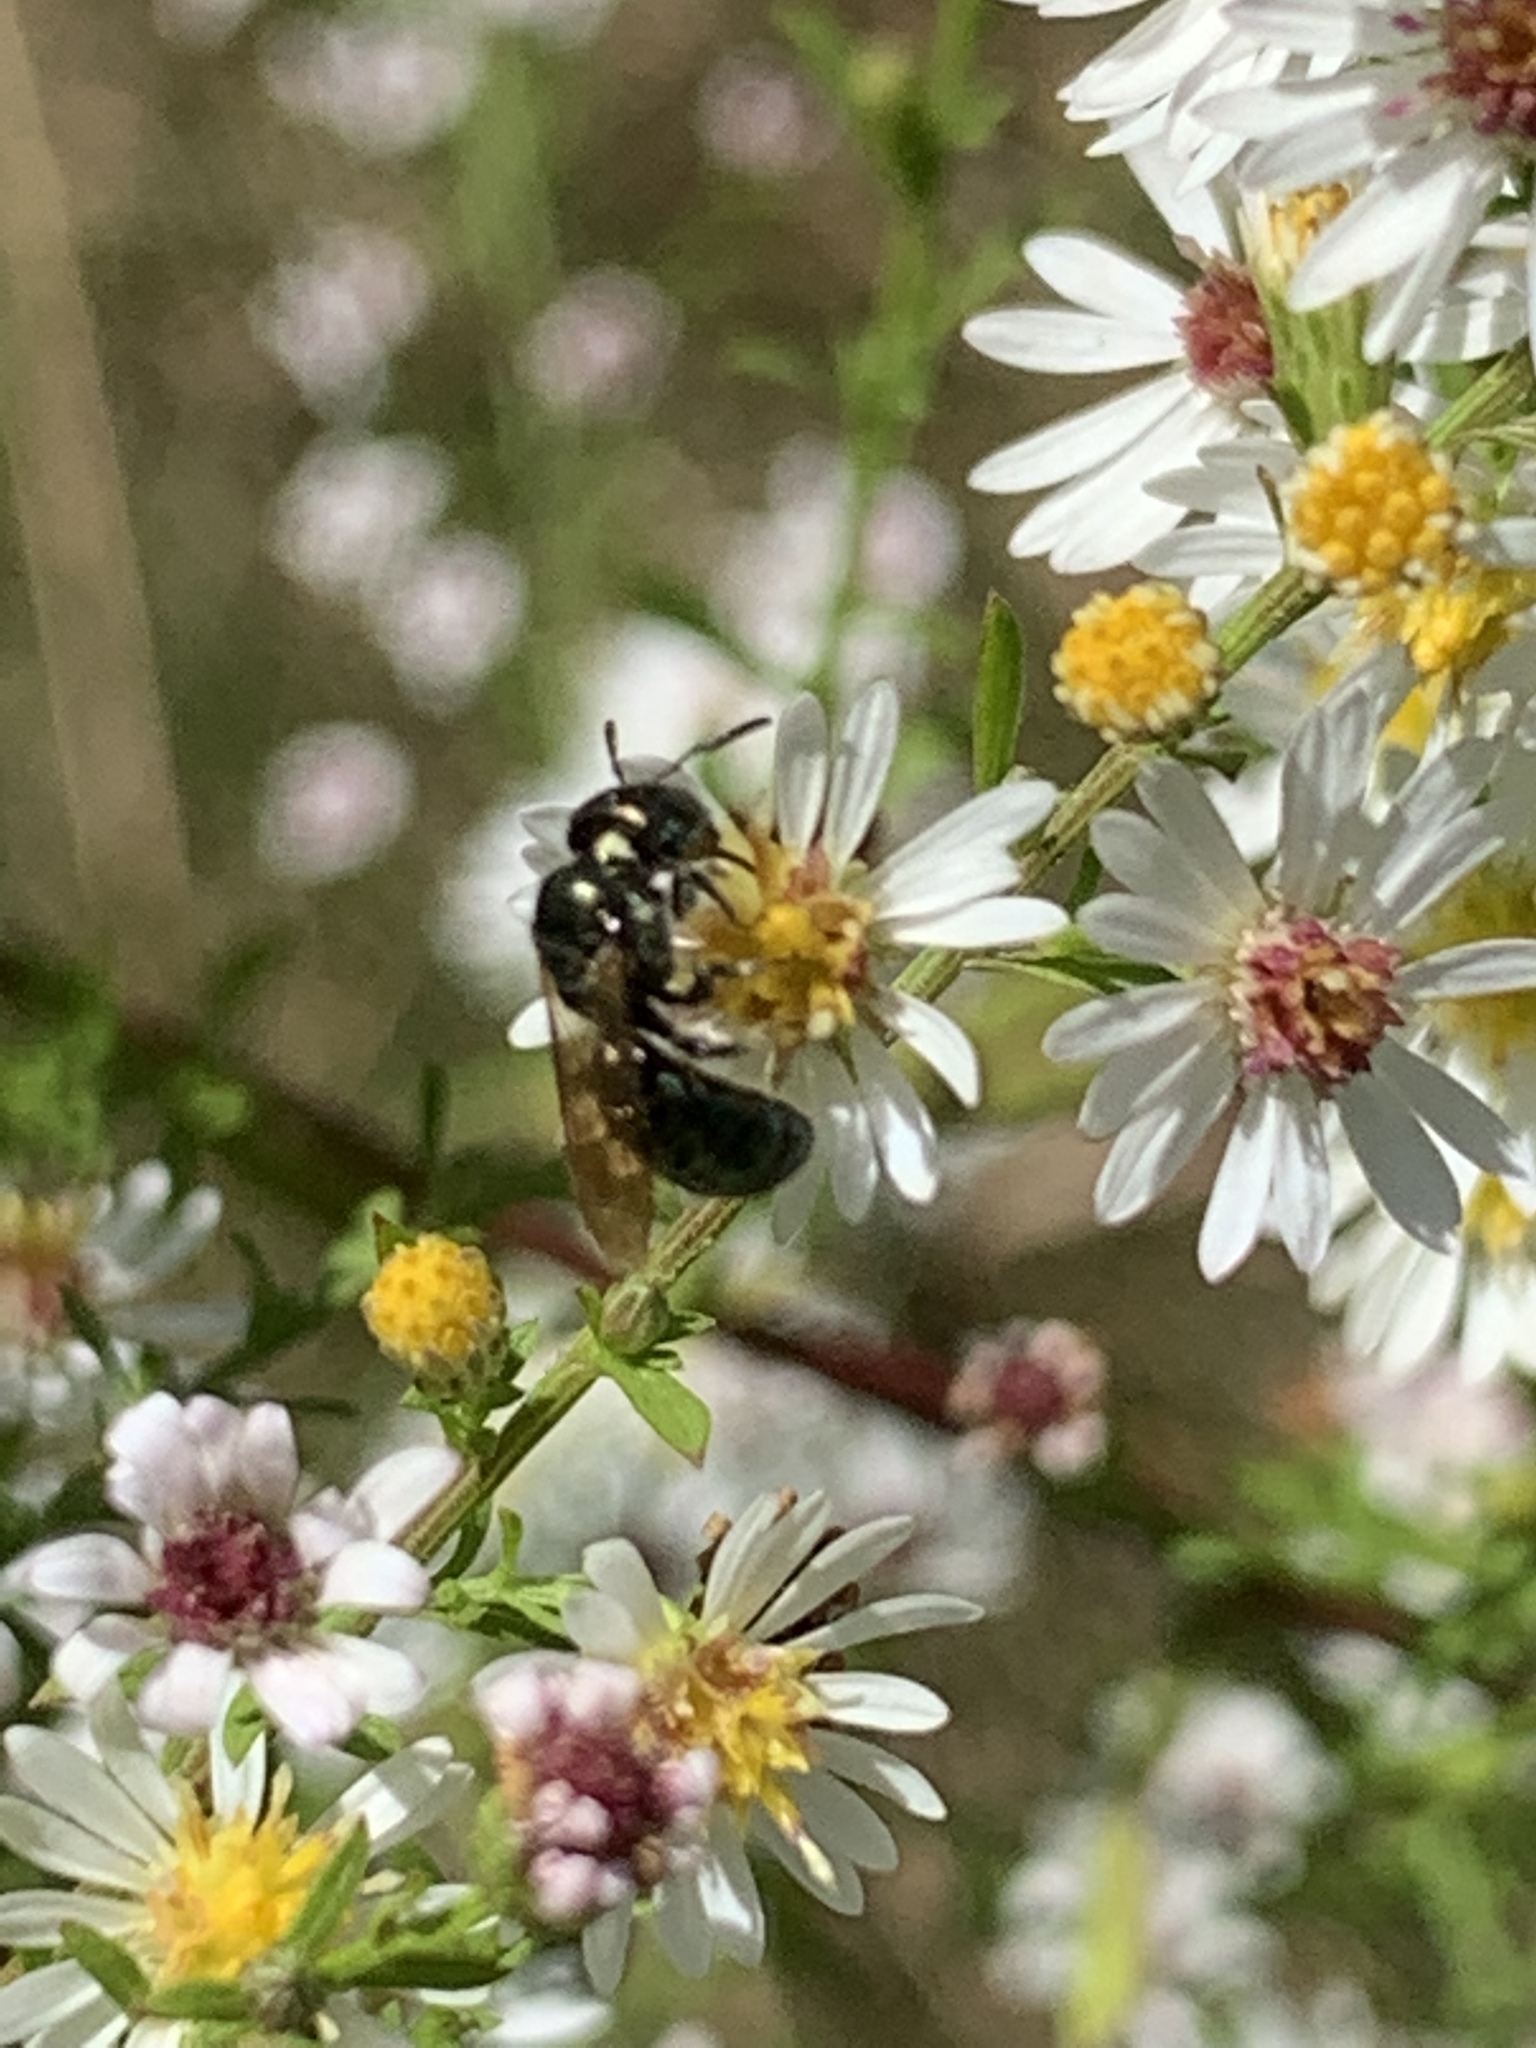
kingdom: Animalia
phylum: Arthropoda
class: Insecta
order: Hymenoptera
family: Apidae
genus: Zadontomerus
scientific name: Zadontomerus
